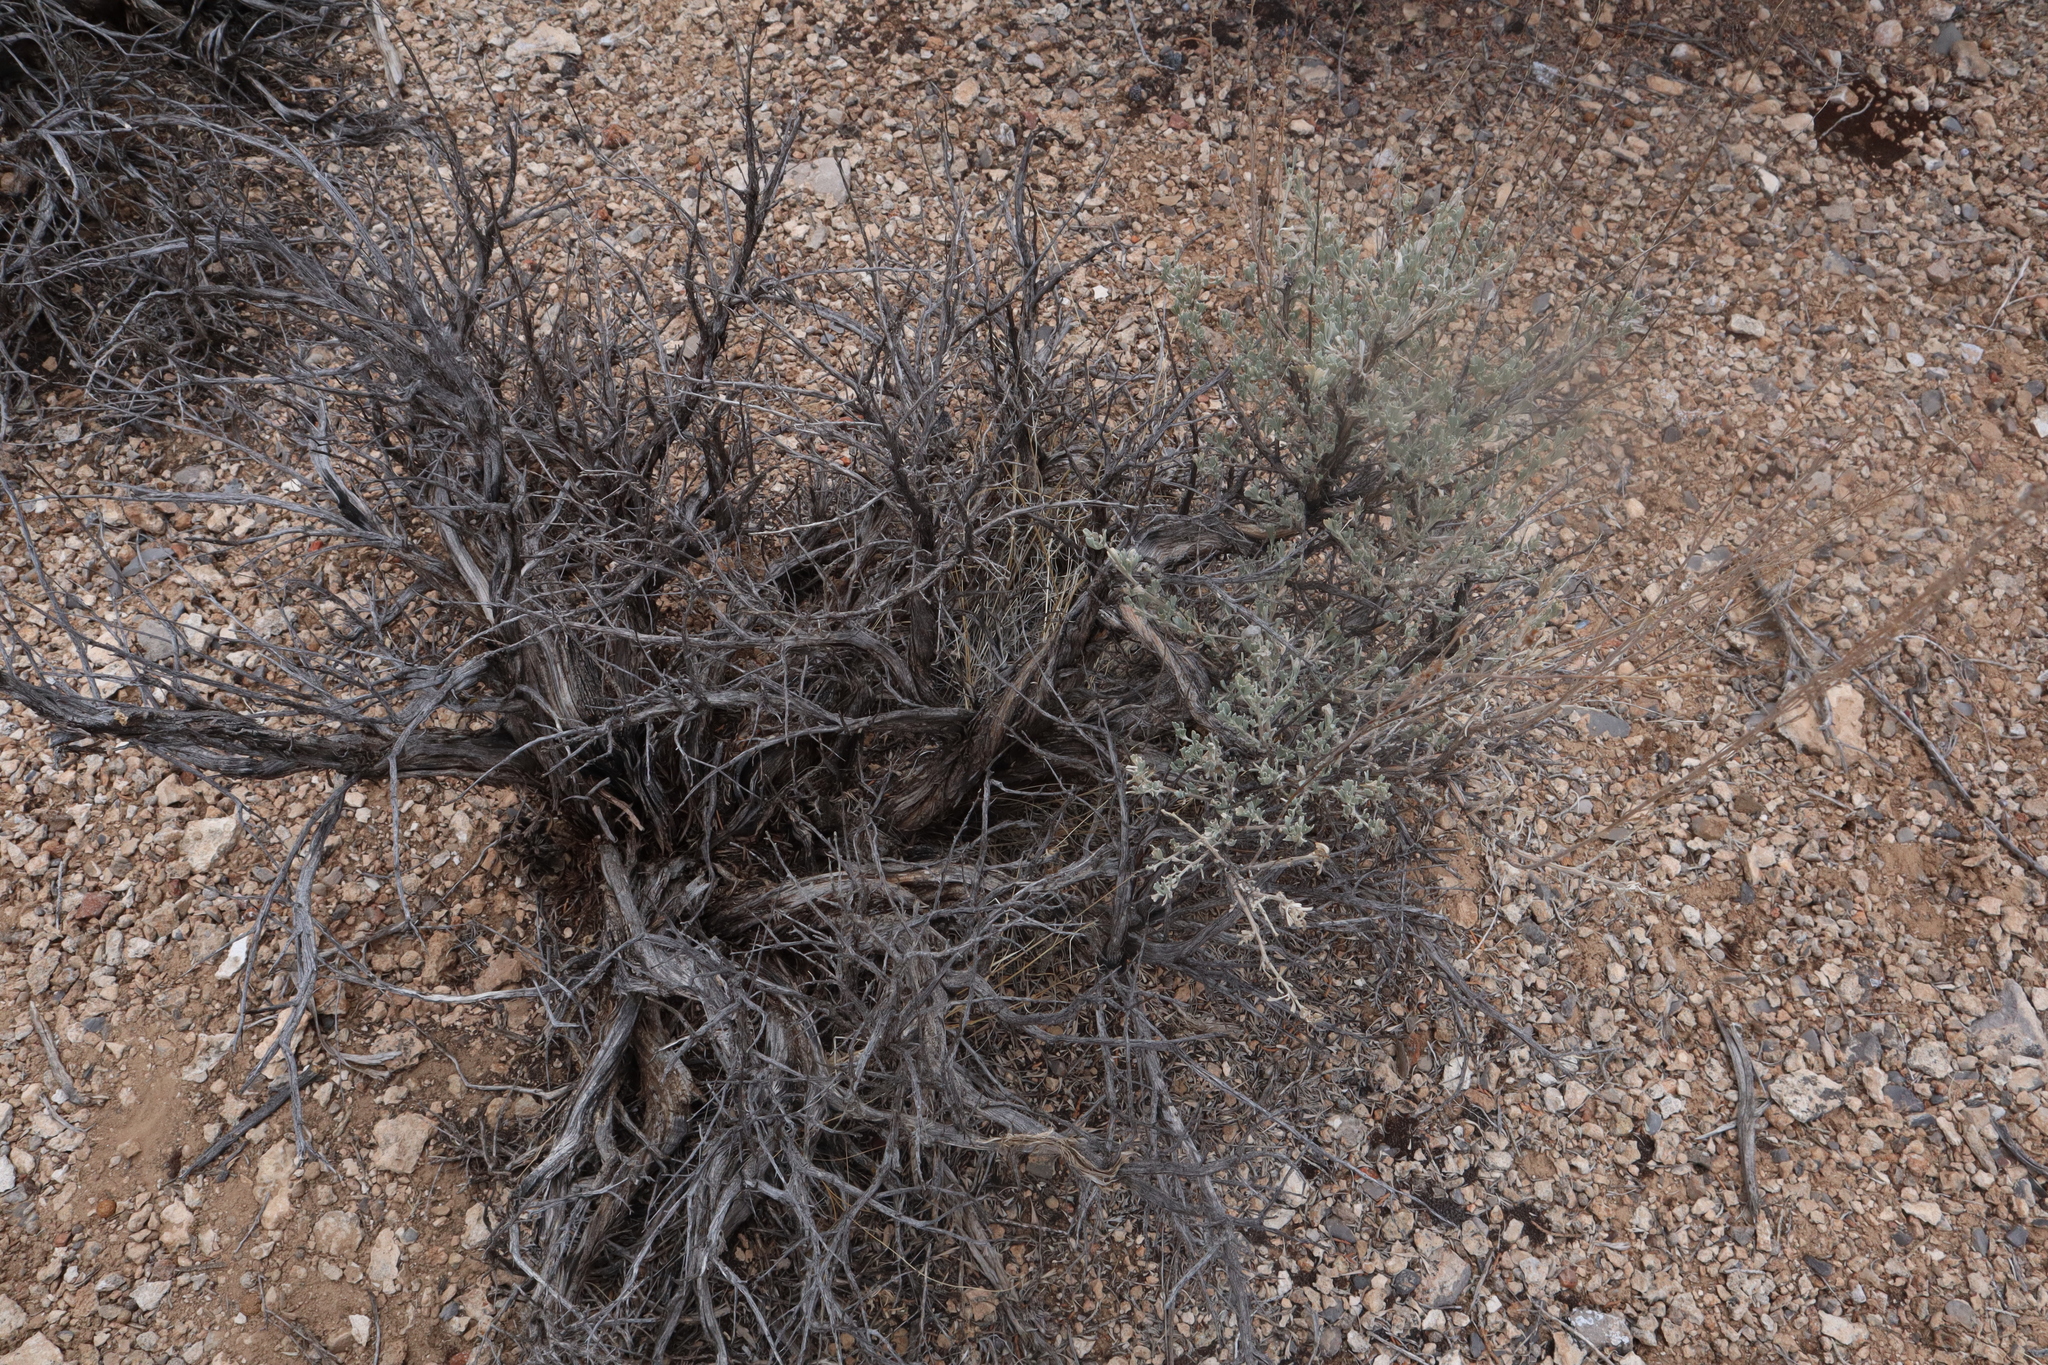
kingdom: Plantae
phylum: Tracheophyta
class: Magnoliopsida
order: Asterales
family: Asteraceae
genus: Artemisia
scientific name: Artemisia tridentata
